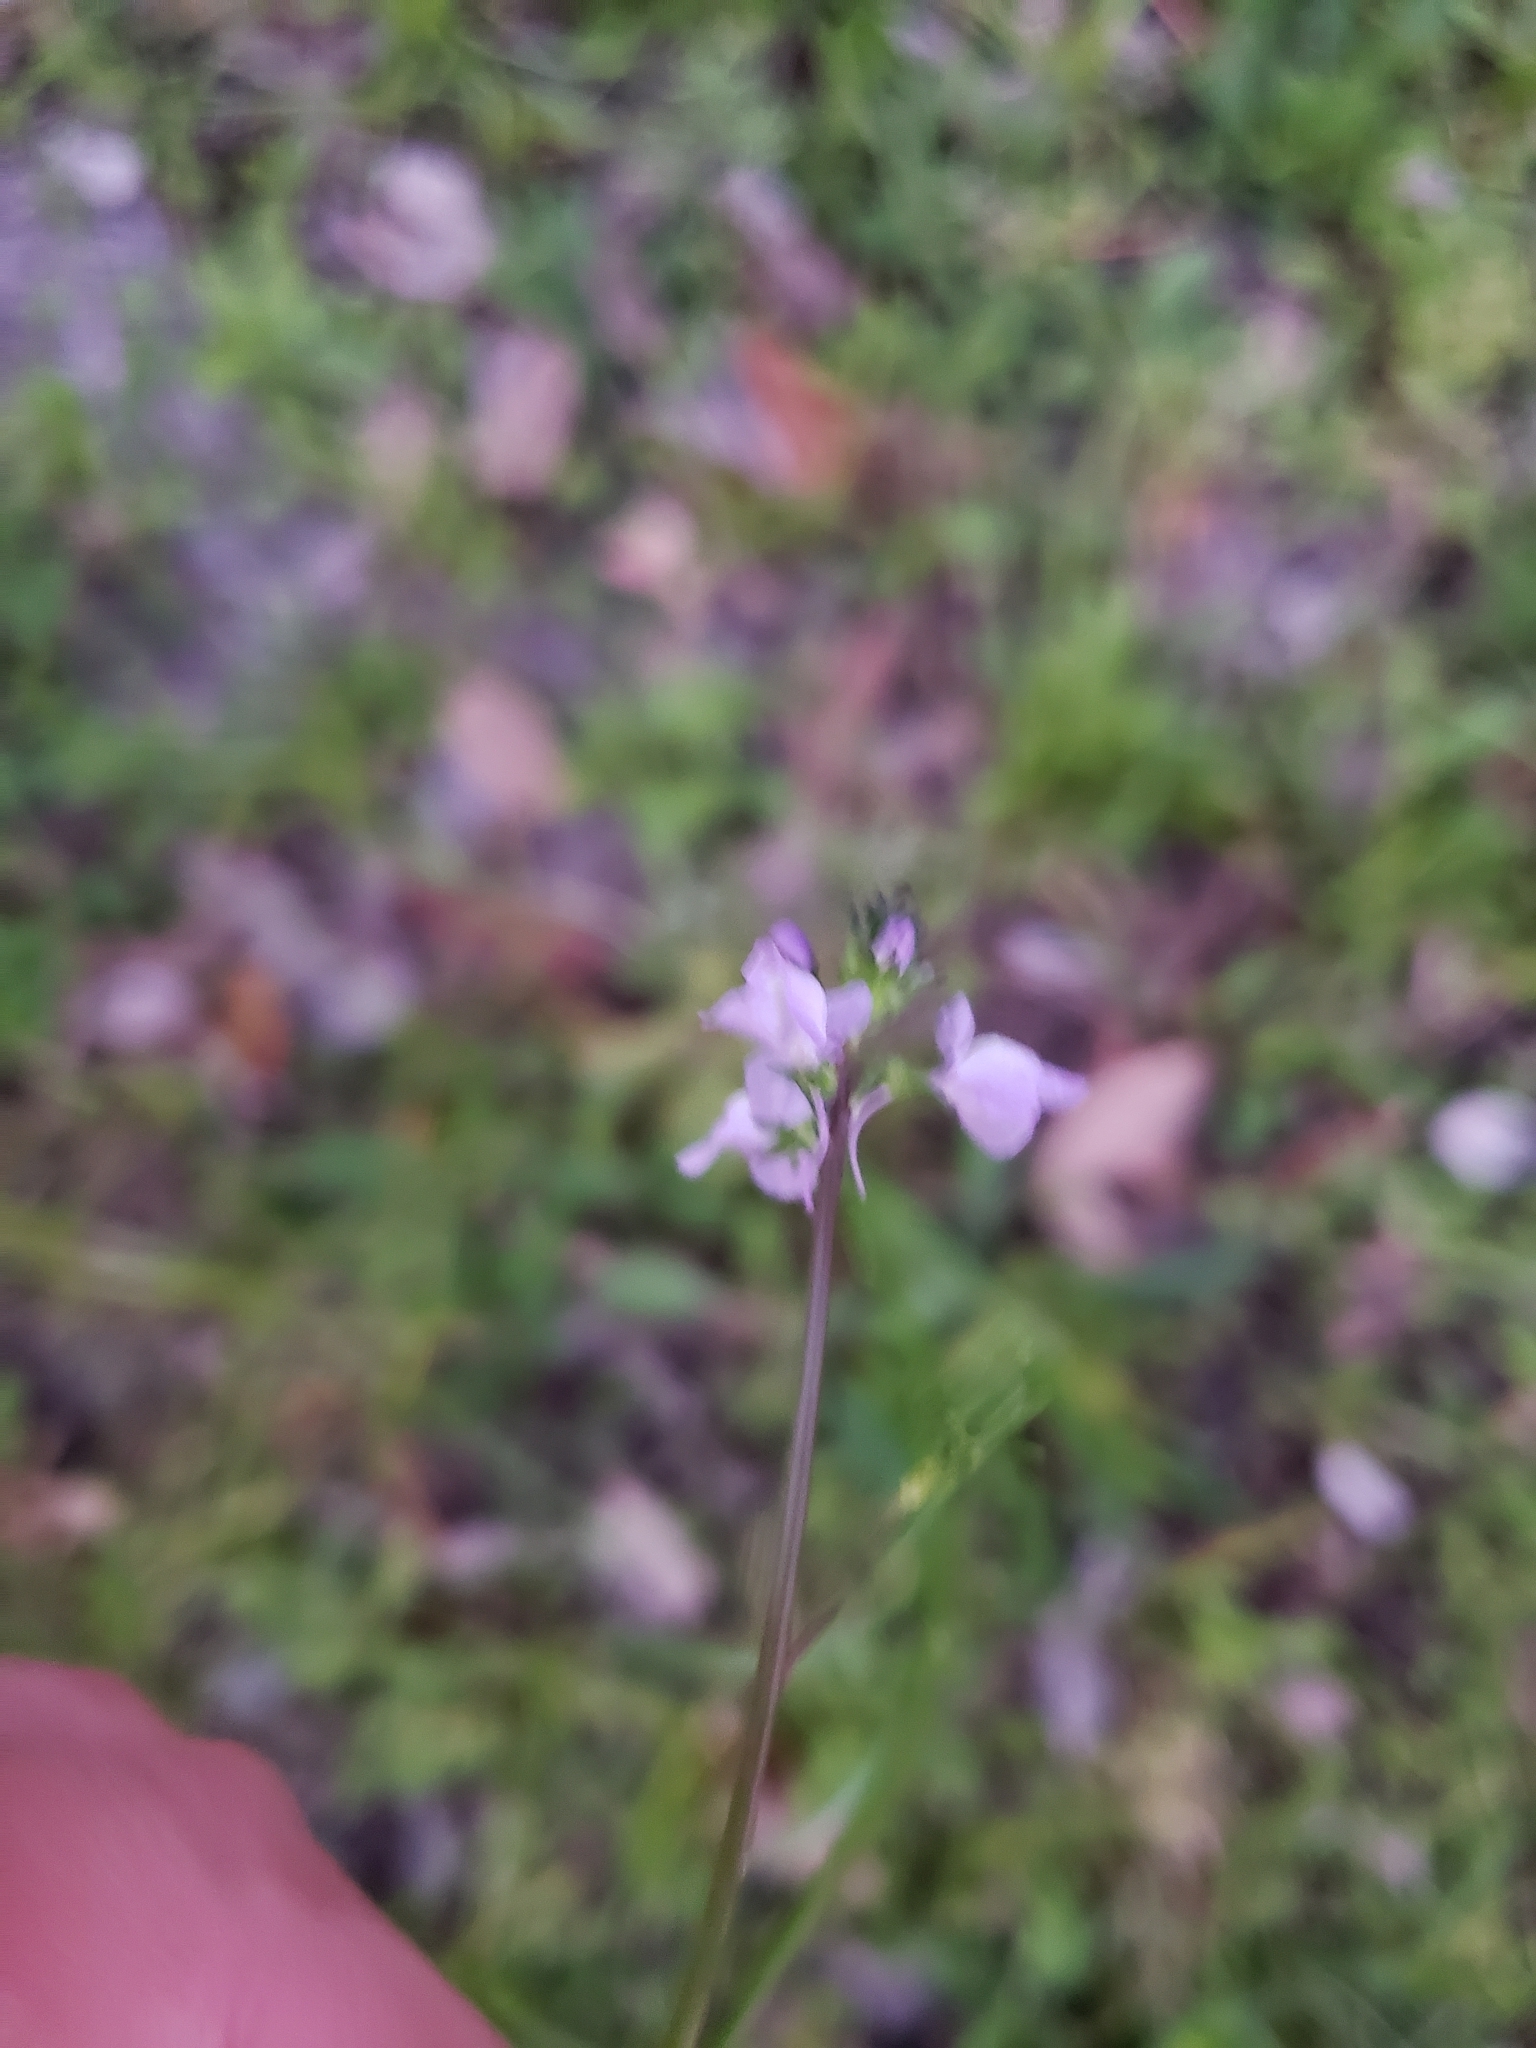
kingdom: Plantae
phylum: Tracheophyta
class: Magnoliopsida
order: Lamiales
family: Plantaginaceae
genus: Nuttallanthus
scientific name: Nuttallanthus canadensis
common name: Blue toadflax
